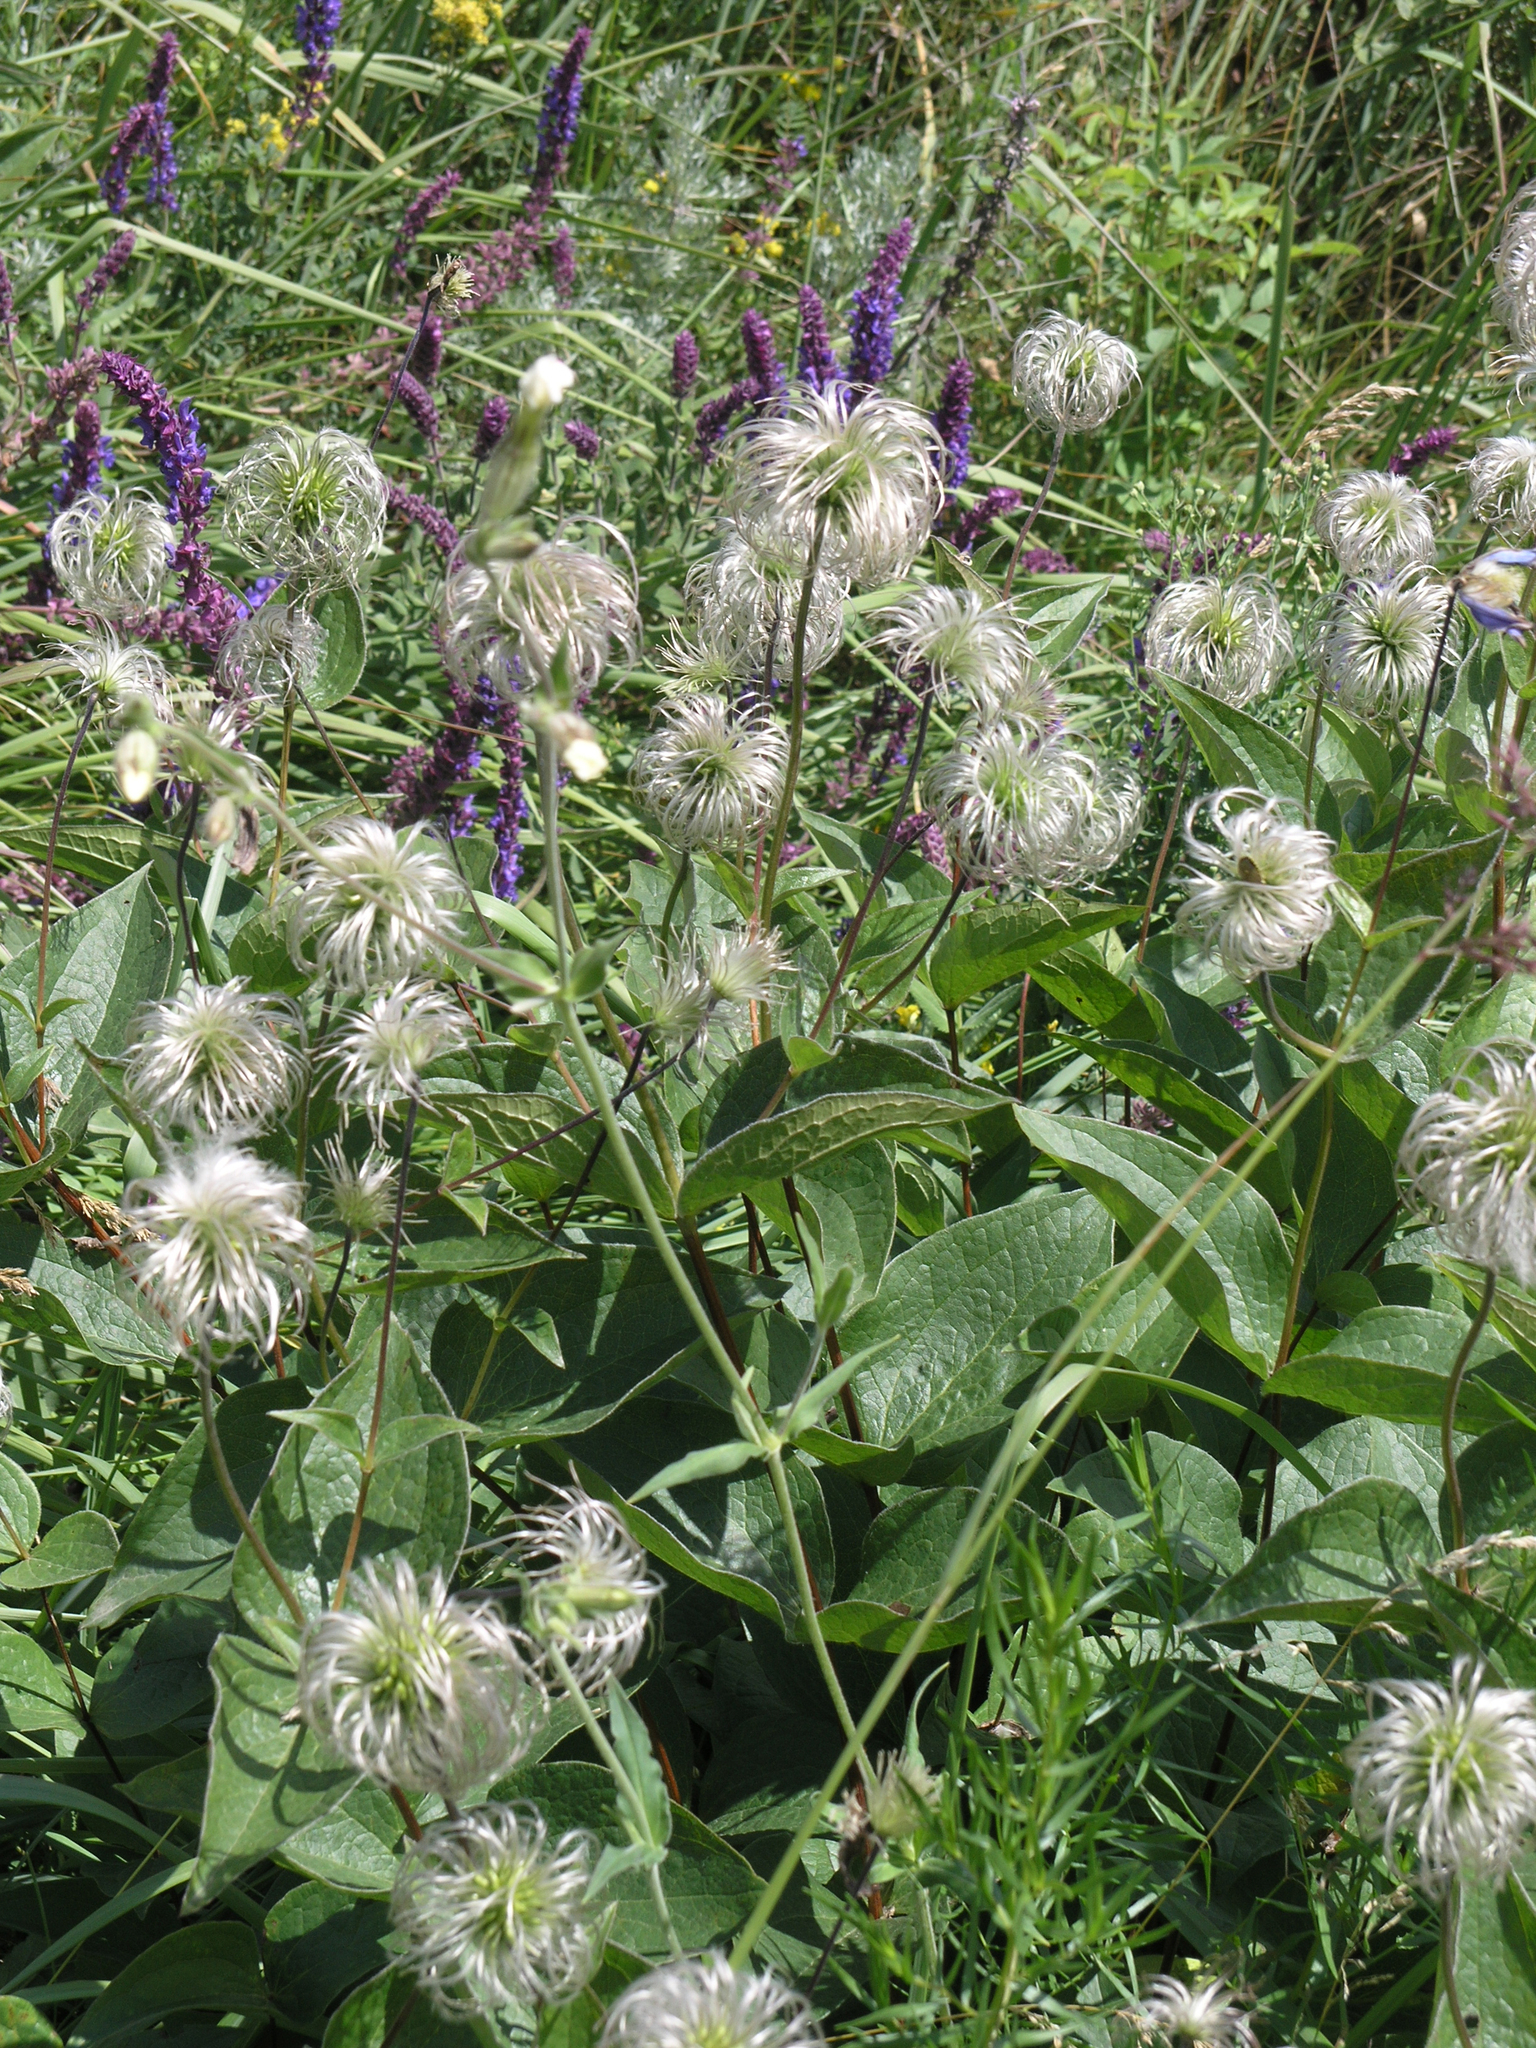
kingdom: Plantae
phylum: Tracheophyta
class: Magnoliopsida
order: Ranunculales
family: Ranunculaceae
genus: Clematis
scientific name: Clematis integrifolia
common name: Solitary clematis
